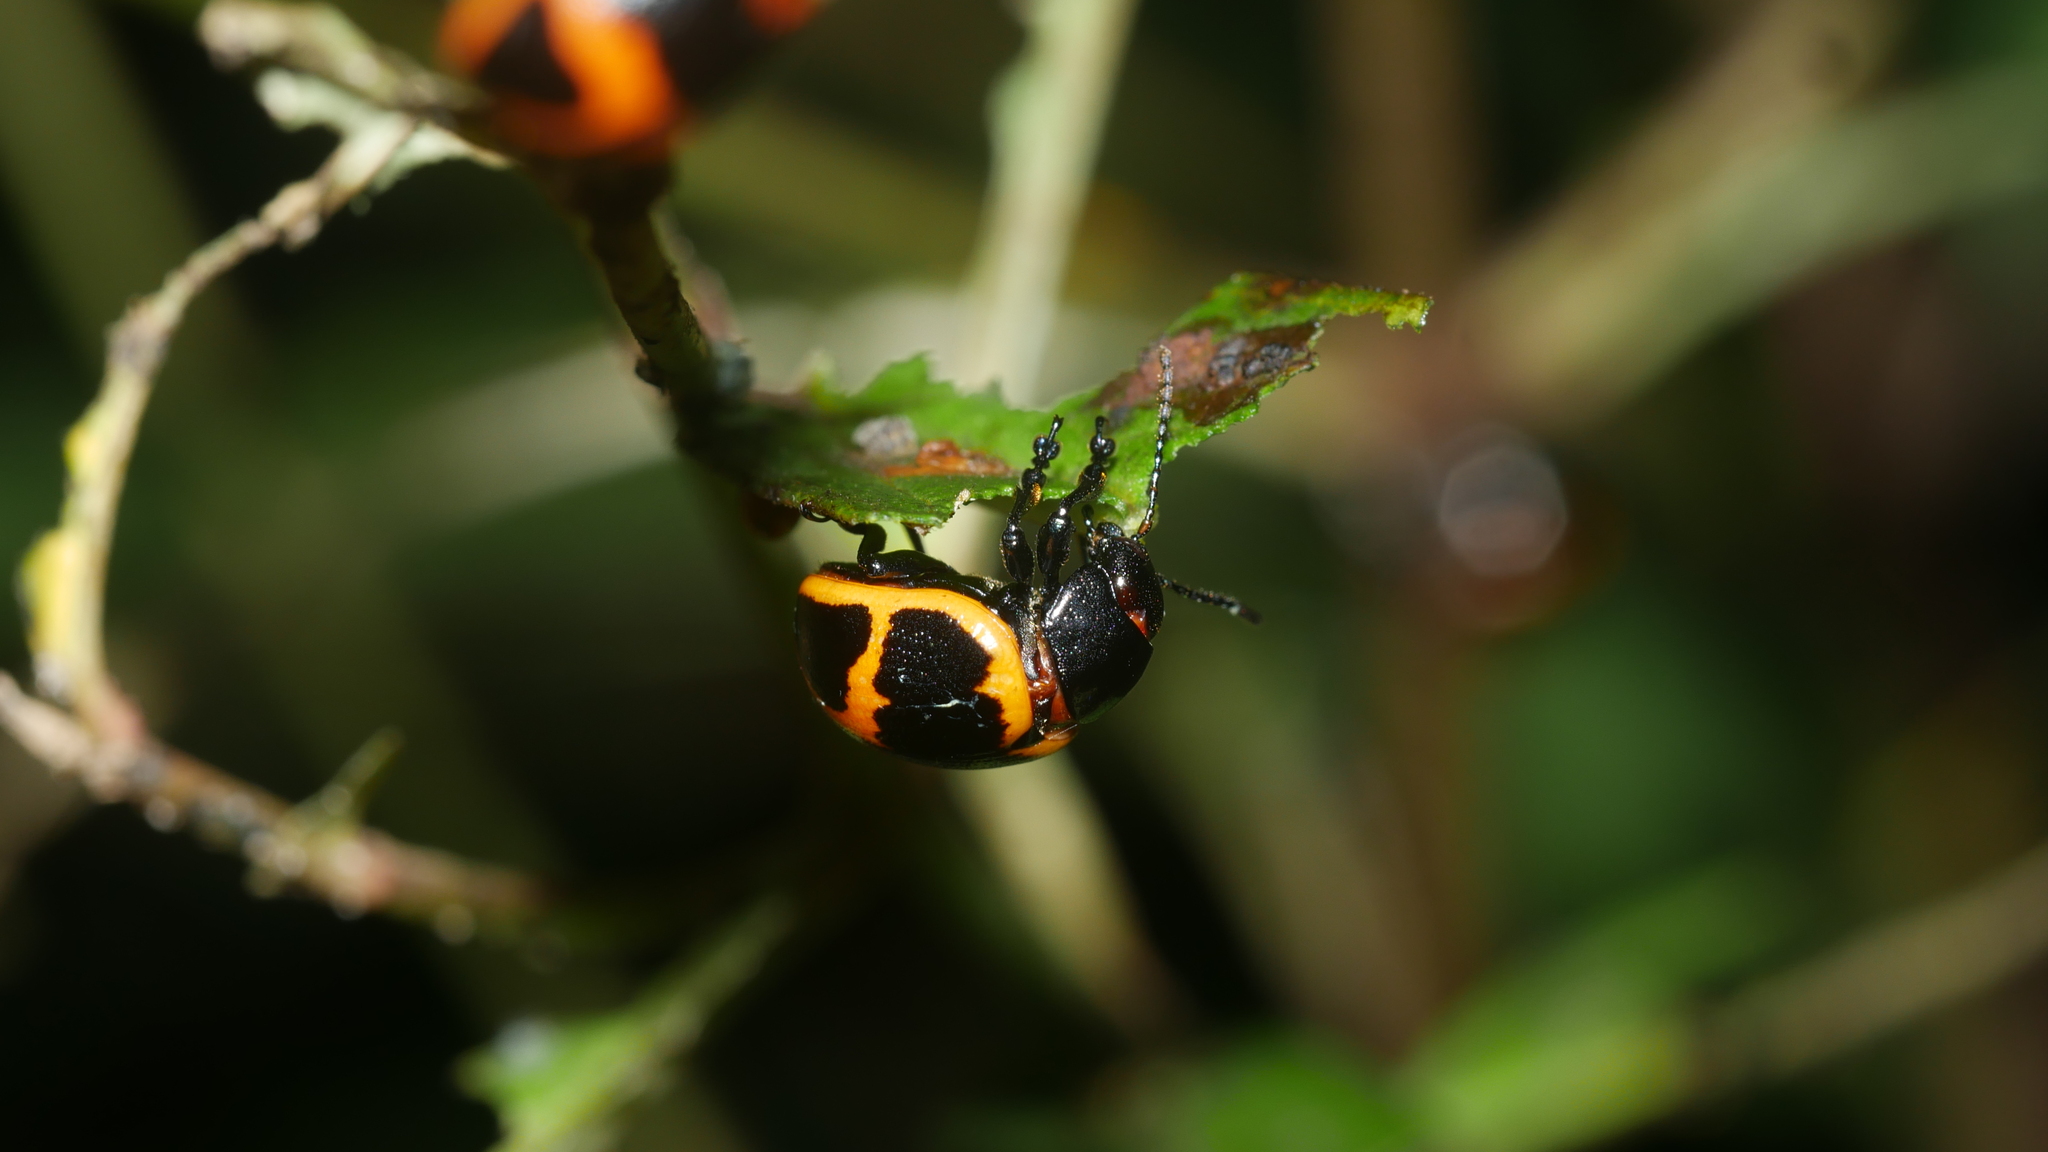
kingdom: Animalia
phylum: Arthropoda
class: Insecta
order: Coleoptera
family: Chrysomelidae
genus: Labidomera
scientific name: Labidomera clivicollis
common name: Swamp milkweed leaf beetle
